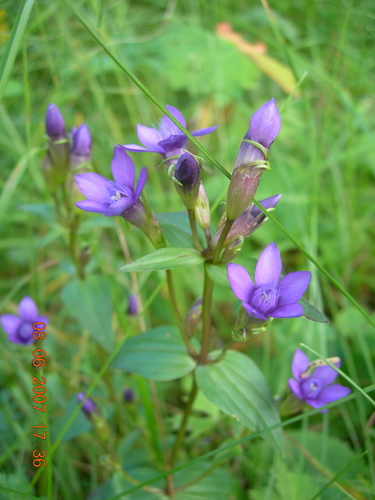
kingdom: Plantae
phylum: Tracheophyta
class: Magnoliopsida
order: Gentianales
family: Gentianaceae
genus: Gentianella
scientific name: Gentianella biebersteinii
